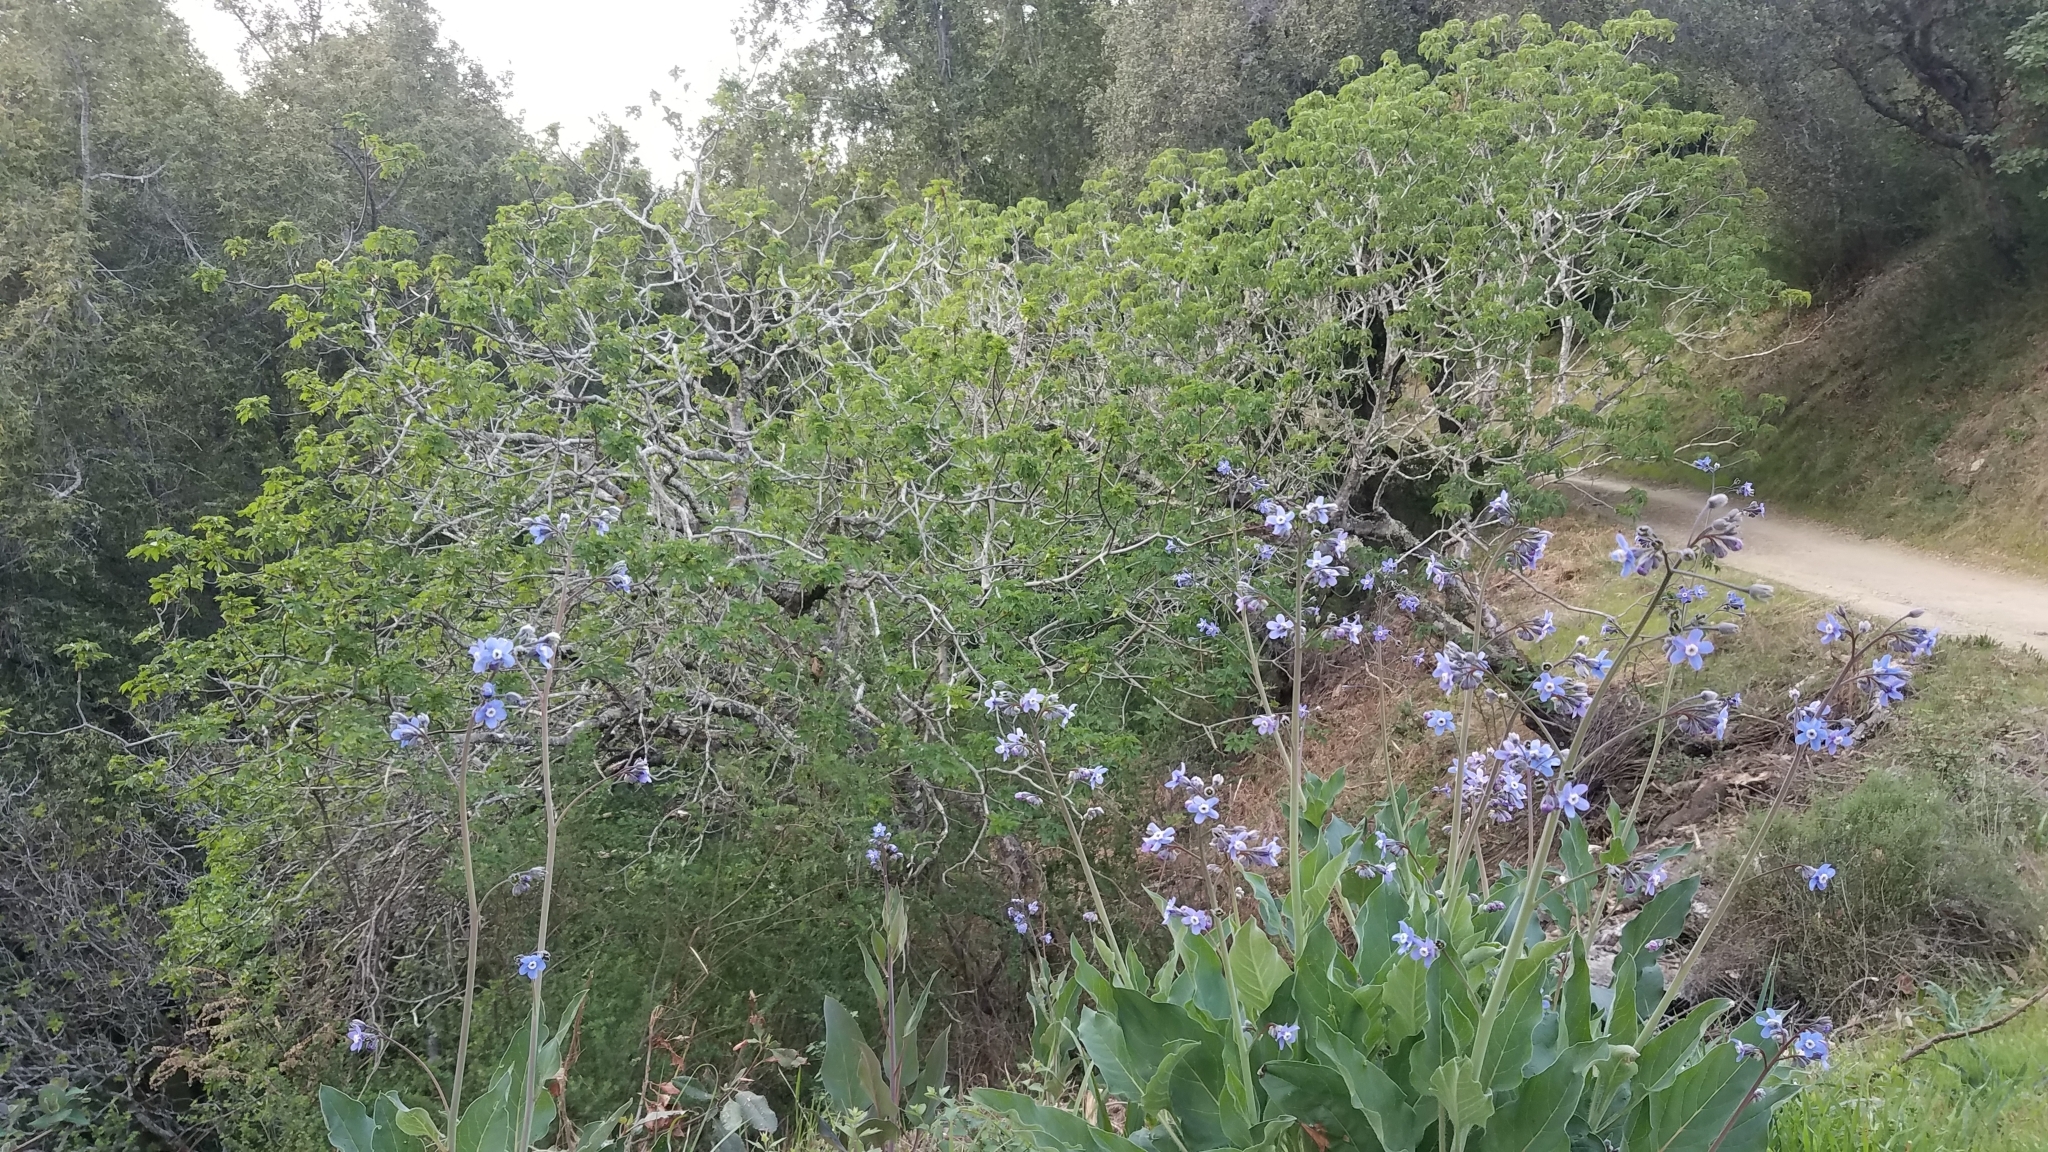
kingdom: Plantae
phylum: Tracheophyta
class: Magnoliopsida
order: Boraginales
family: Boraginaceae
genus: Adelinia
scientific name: Adelinia grande
